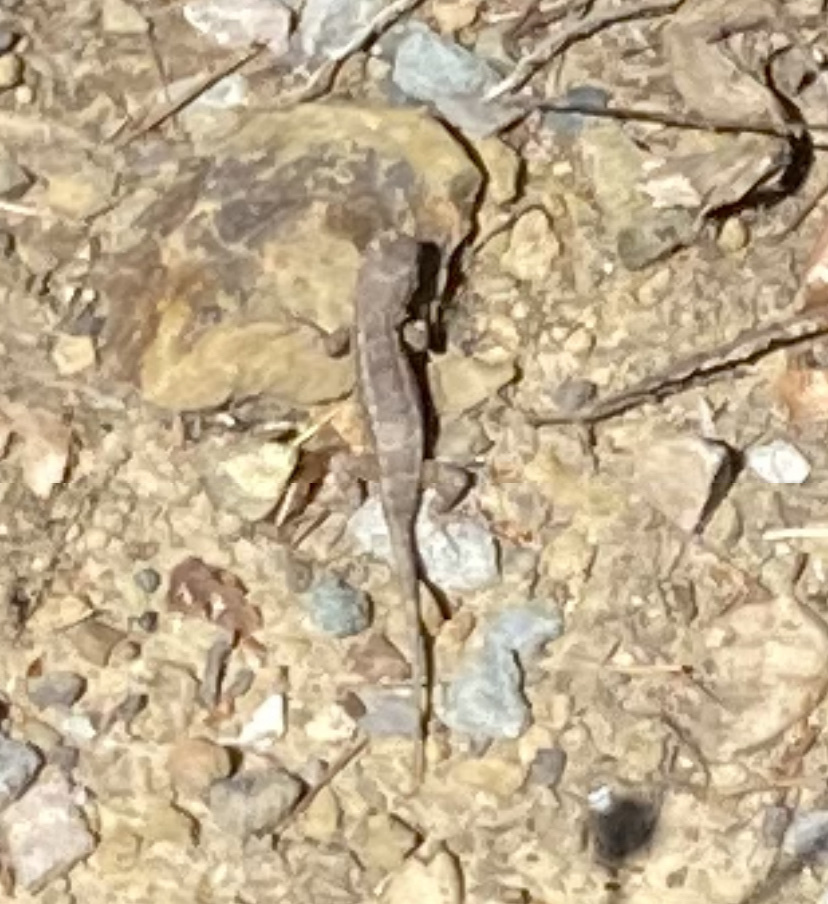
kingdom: Animalia
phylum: Chordata
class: Squamata
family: Phrynosomatidae
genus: Sceloporus
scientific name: Sceloporus occidentalis
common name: Western fence lizard
